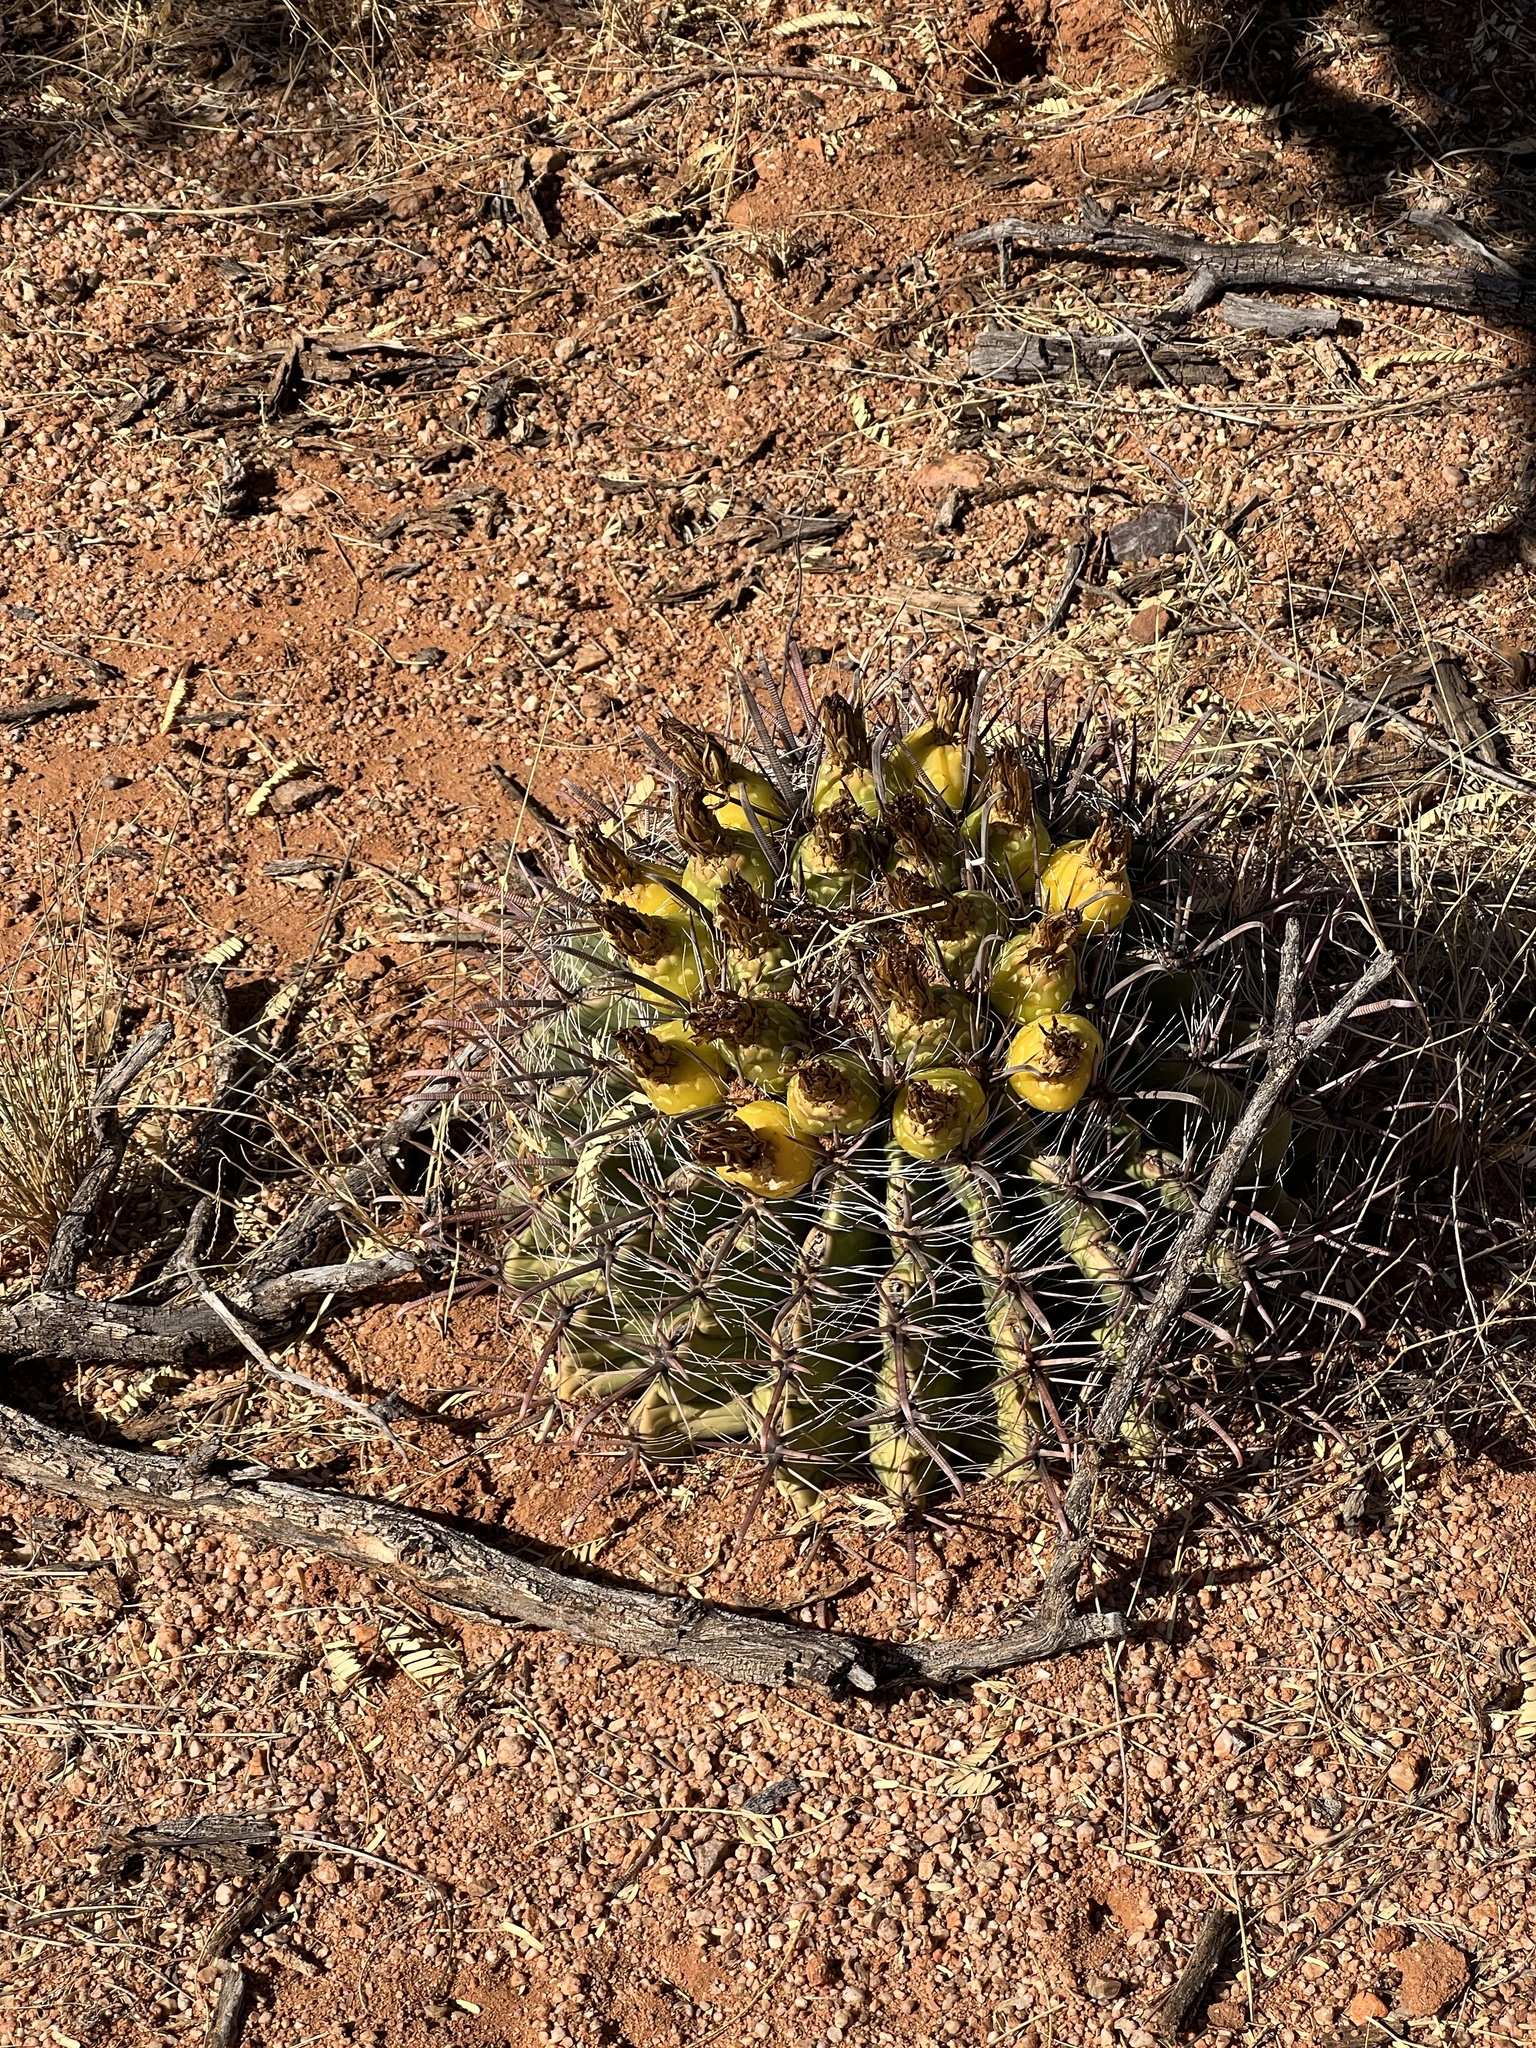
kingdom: Plantae
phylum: Tracheophyta
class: Magnoliopsida
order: Caryophyllales
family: Cactaceae
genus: Ferocactus
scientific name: Ferocactus wislizeni
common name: Candy barrel cactus
